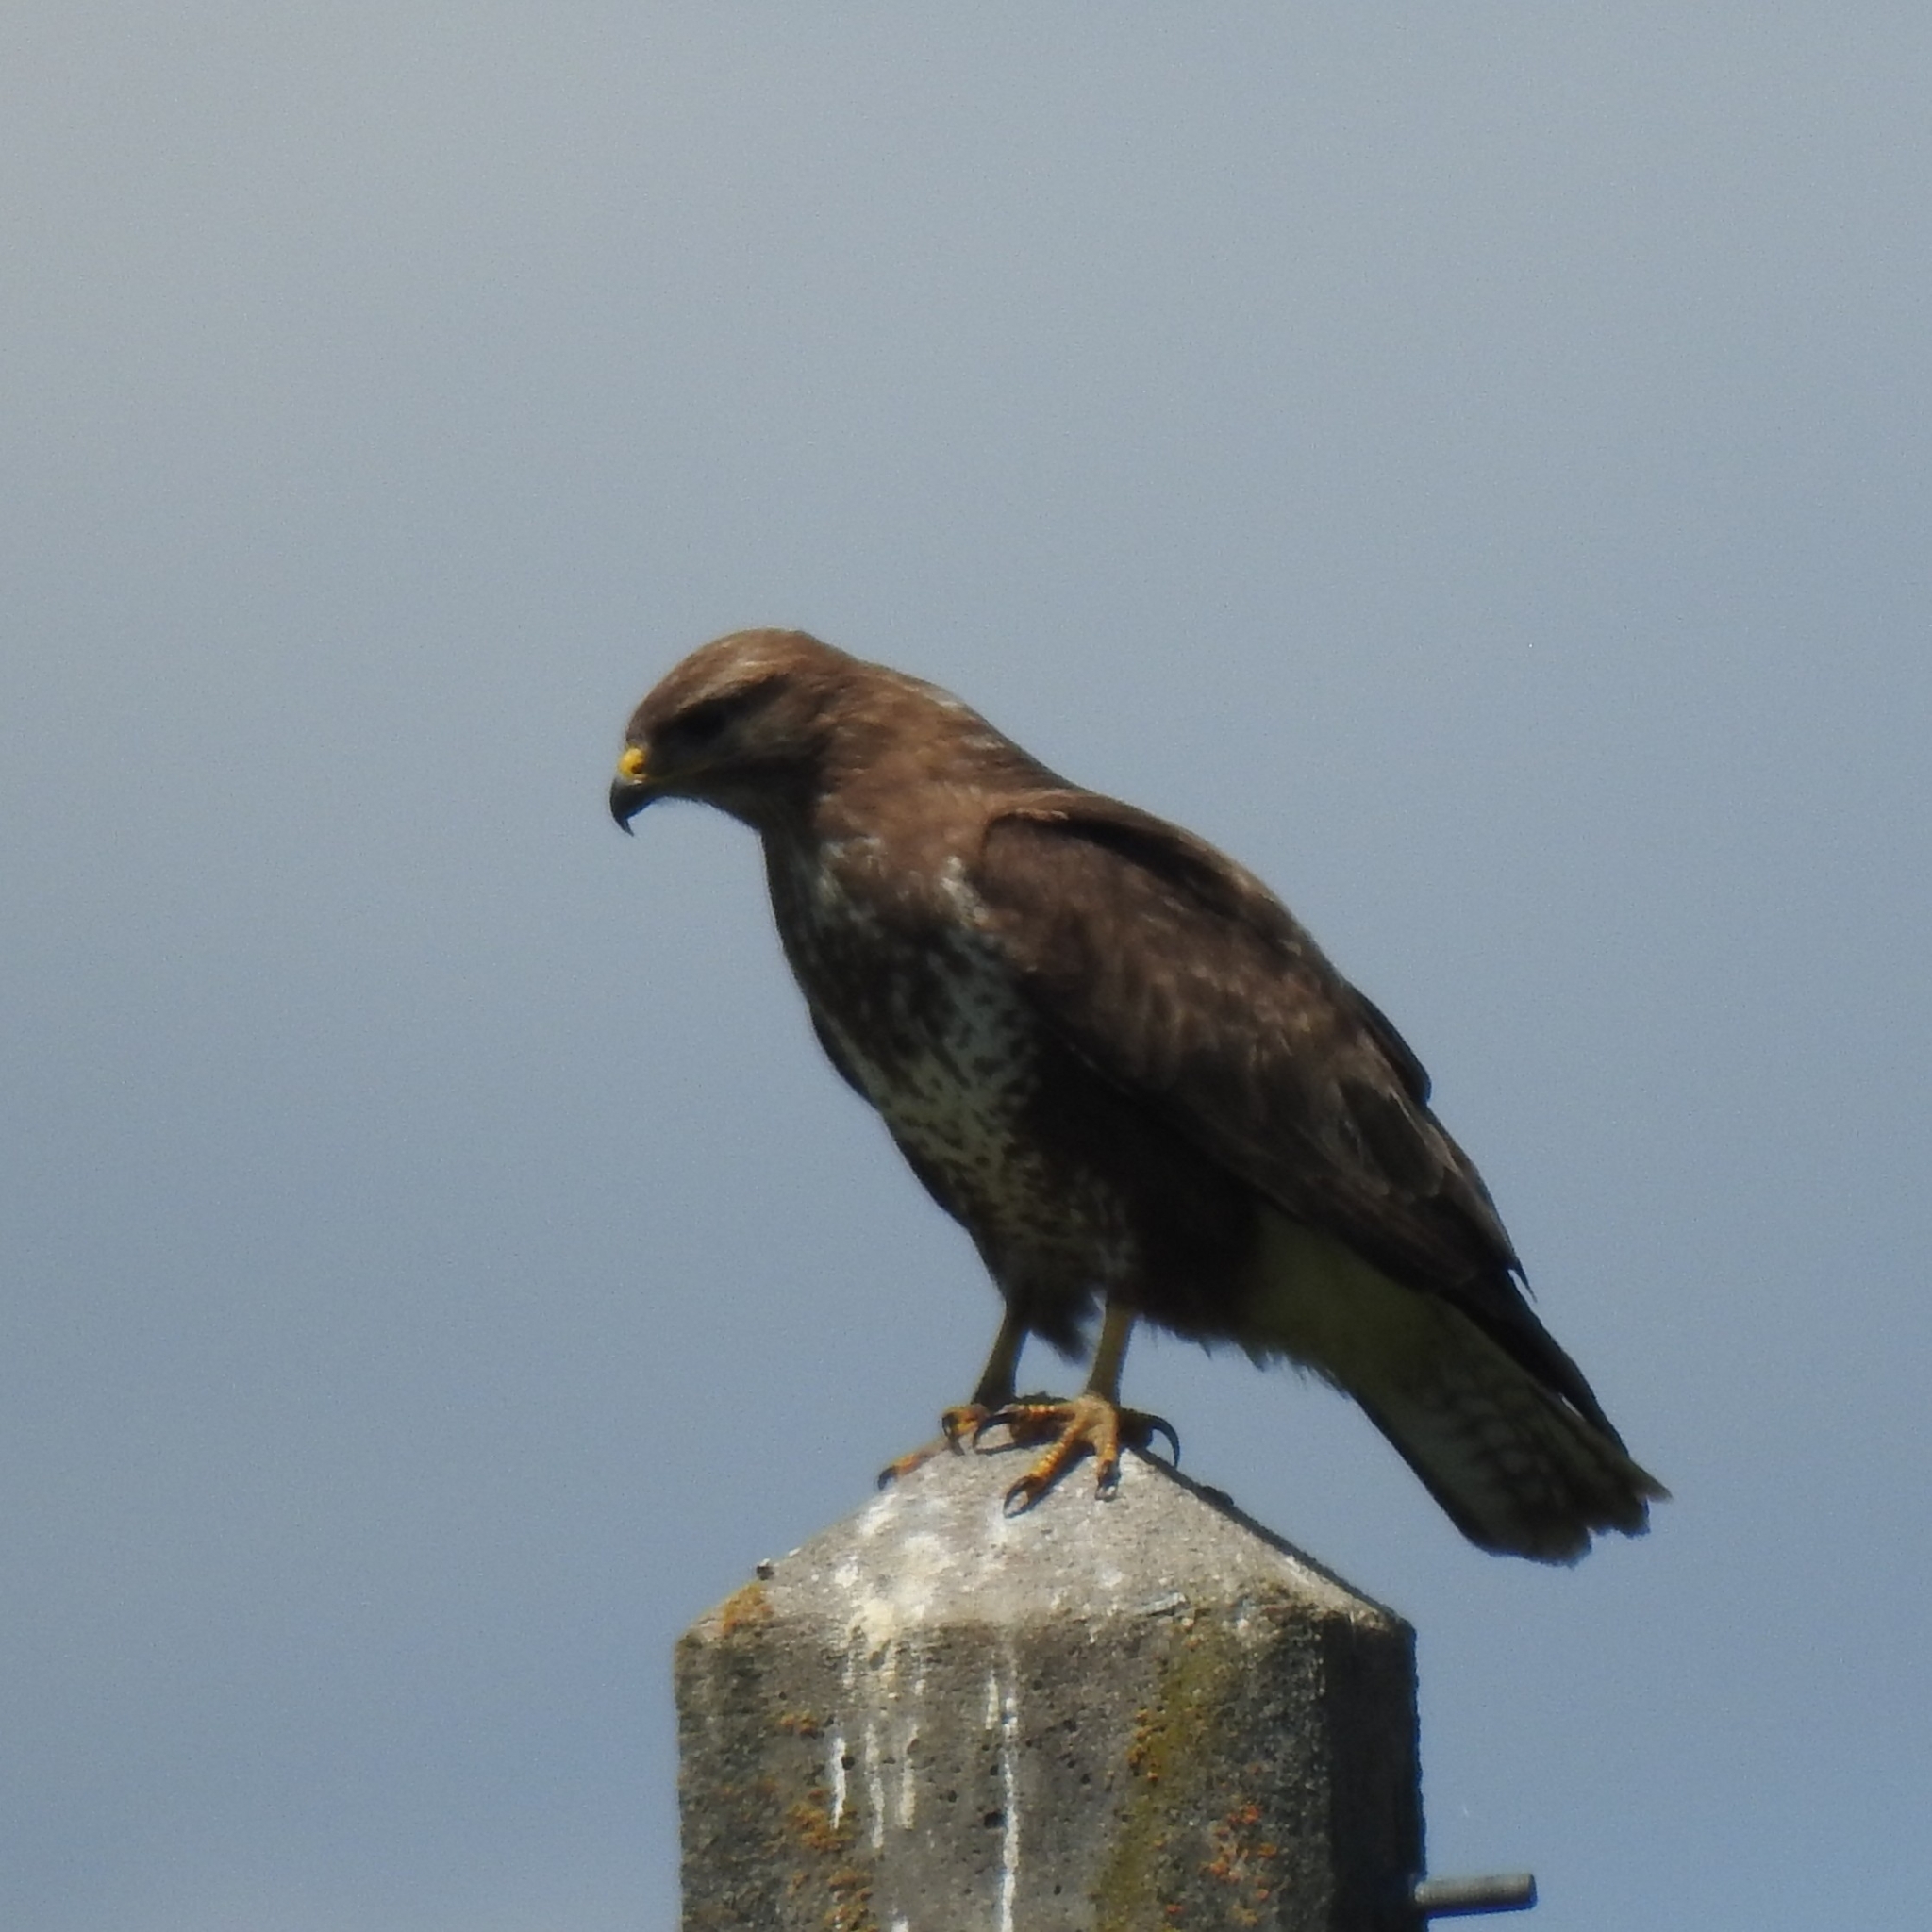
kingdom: Animalia
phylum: Chordata
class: Aves
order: Accipitriformes
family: Accipitridae
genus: Buteo
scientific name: Buteo buteo
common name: Common buzzard
